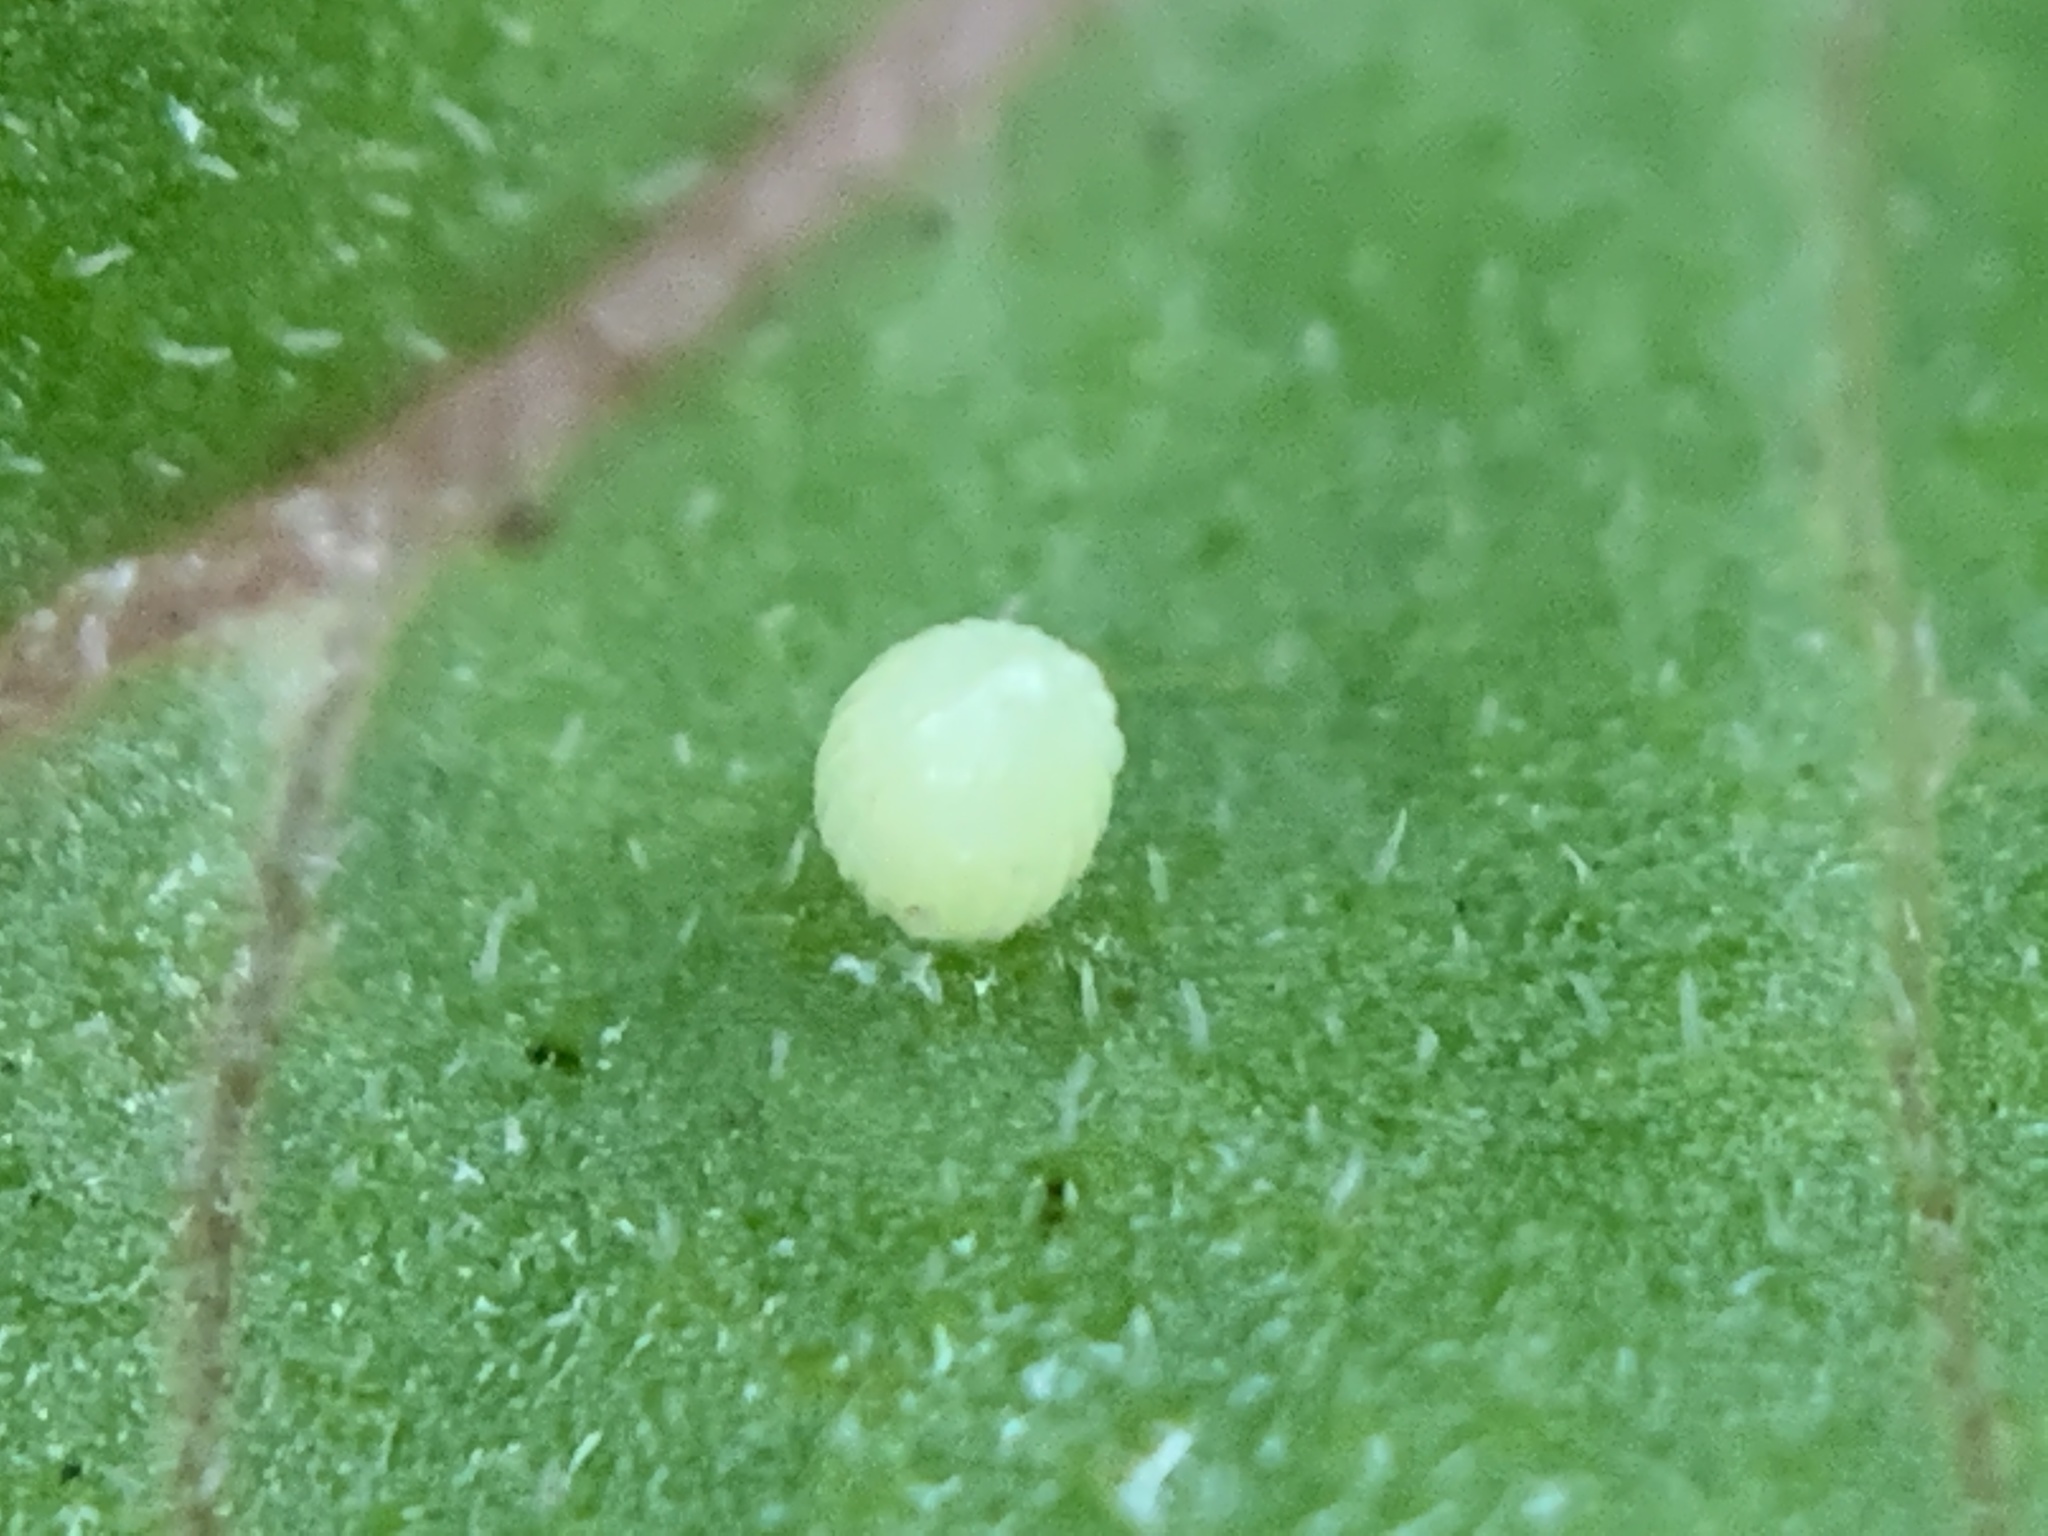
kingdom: Animalia
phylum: Arthropoda
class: Insecta
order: Lepidoptera
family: Nymphalidae
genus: Danaus
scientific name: Danaus plexippus
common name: Monarch
